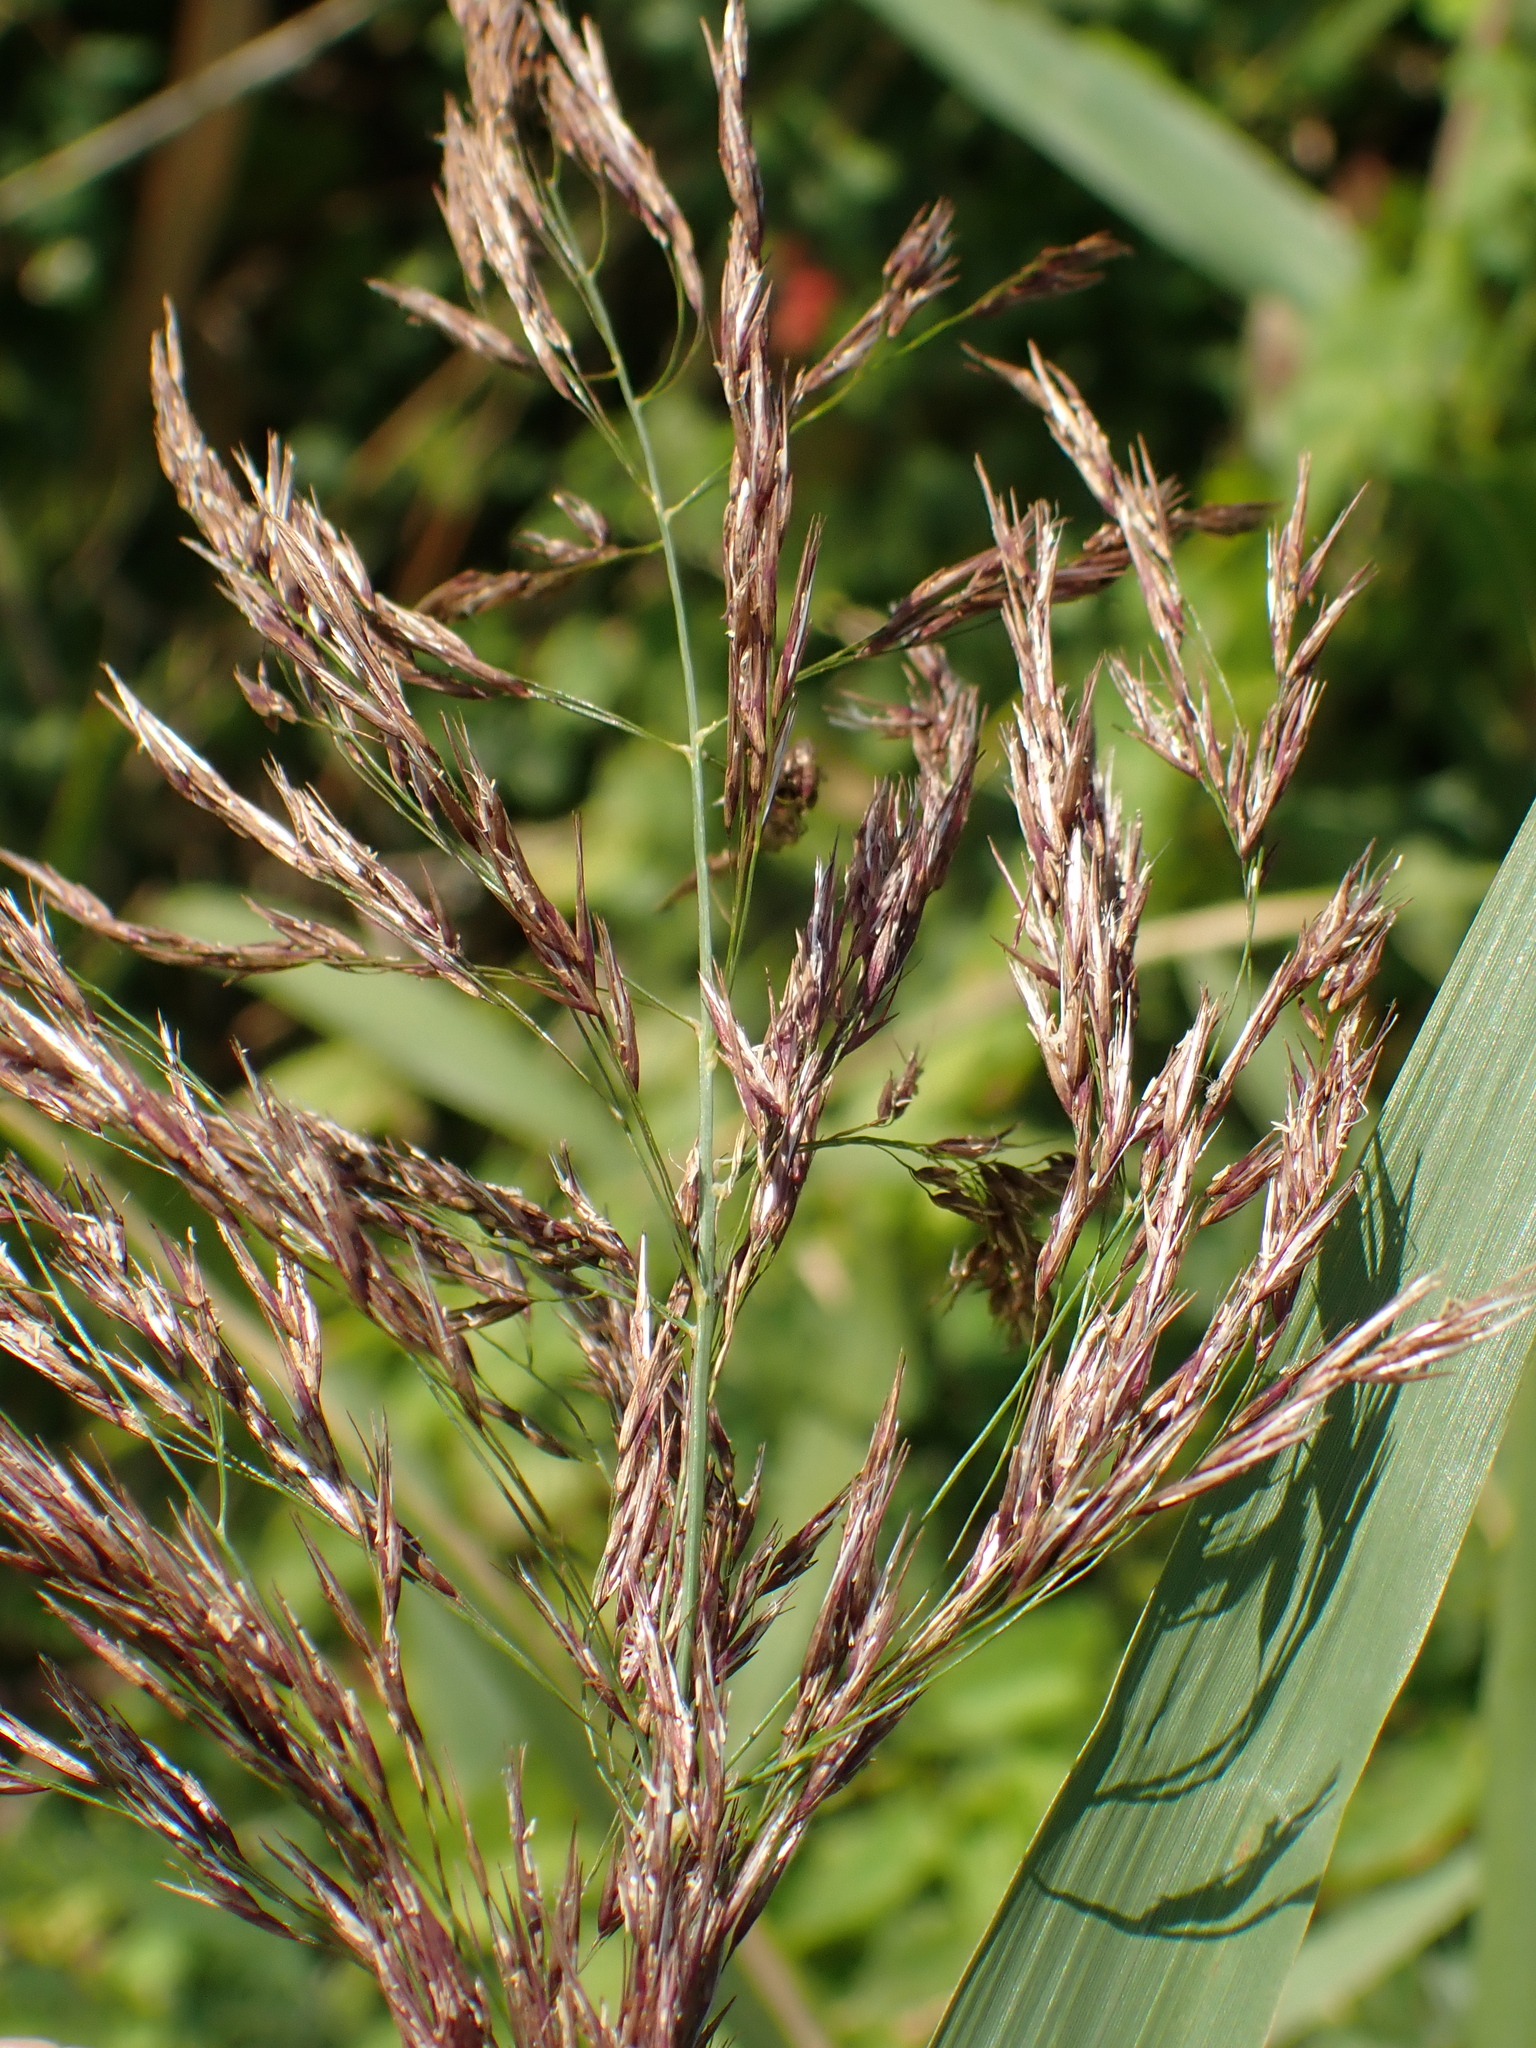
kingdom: Plantae
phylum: Tracheophyta
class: Liliopsida
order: Poales
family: Poaceae
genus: Phragmites
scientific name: Phragmites australis
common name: Common reed
